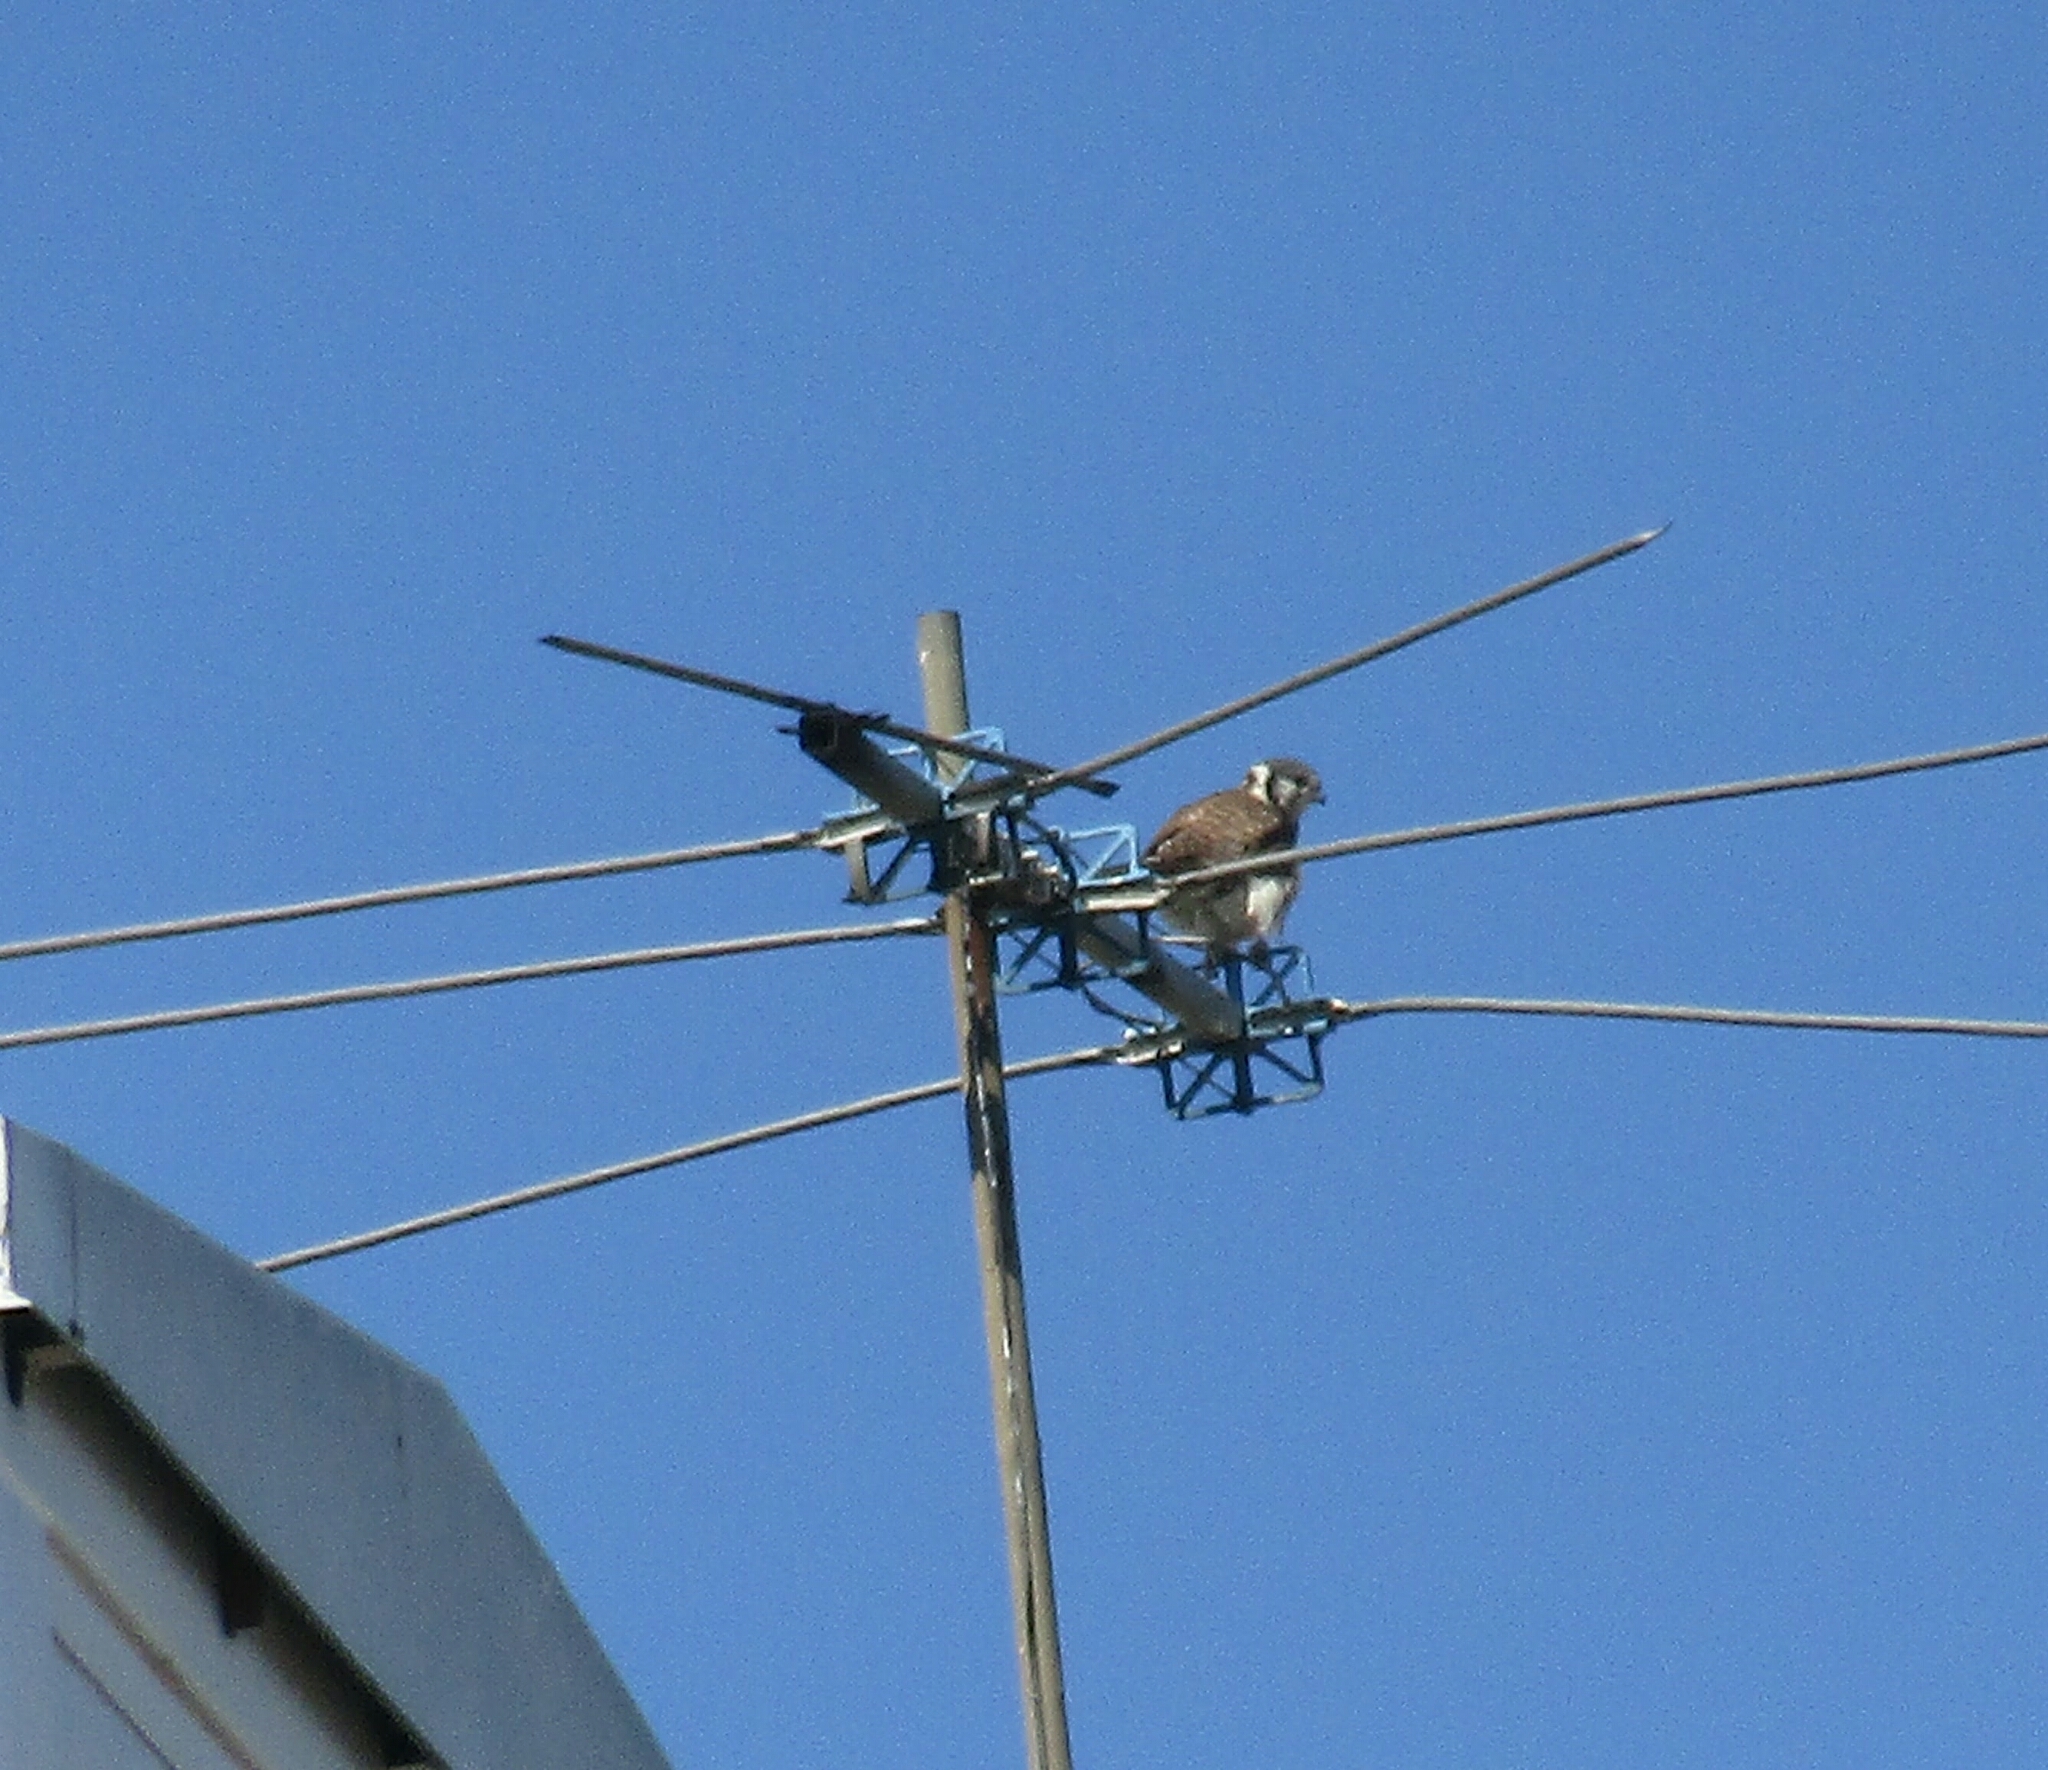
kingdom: Animalia
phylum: Chordata
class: Aves
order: Falconiformes
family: Falconidae
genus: Falco
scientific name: Falco sparverius
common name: American kestrel
